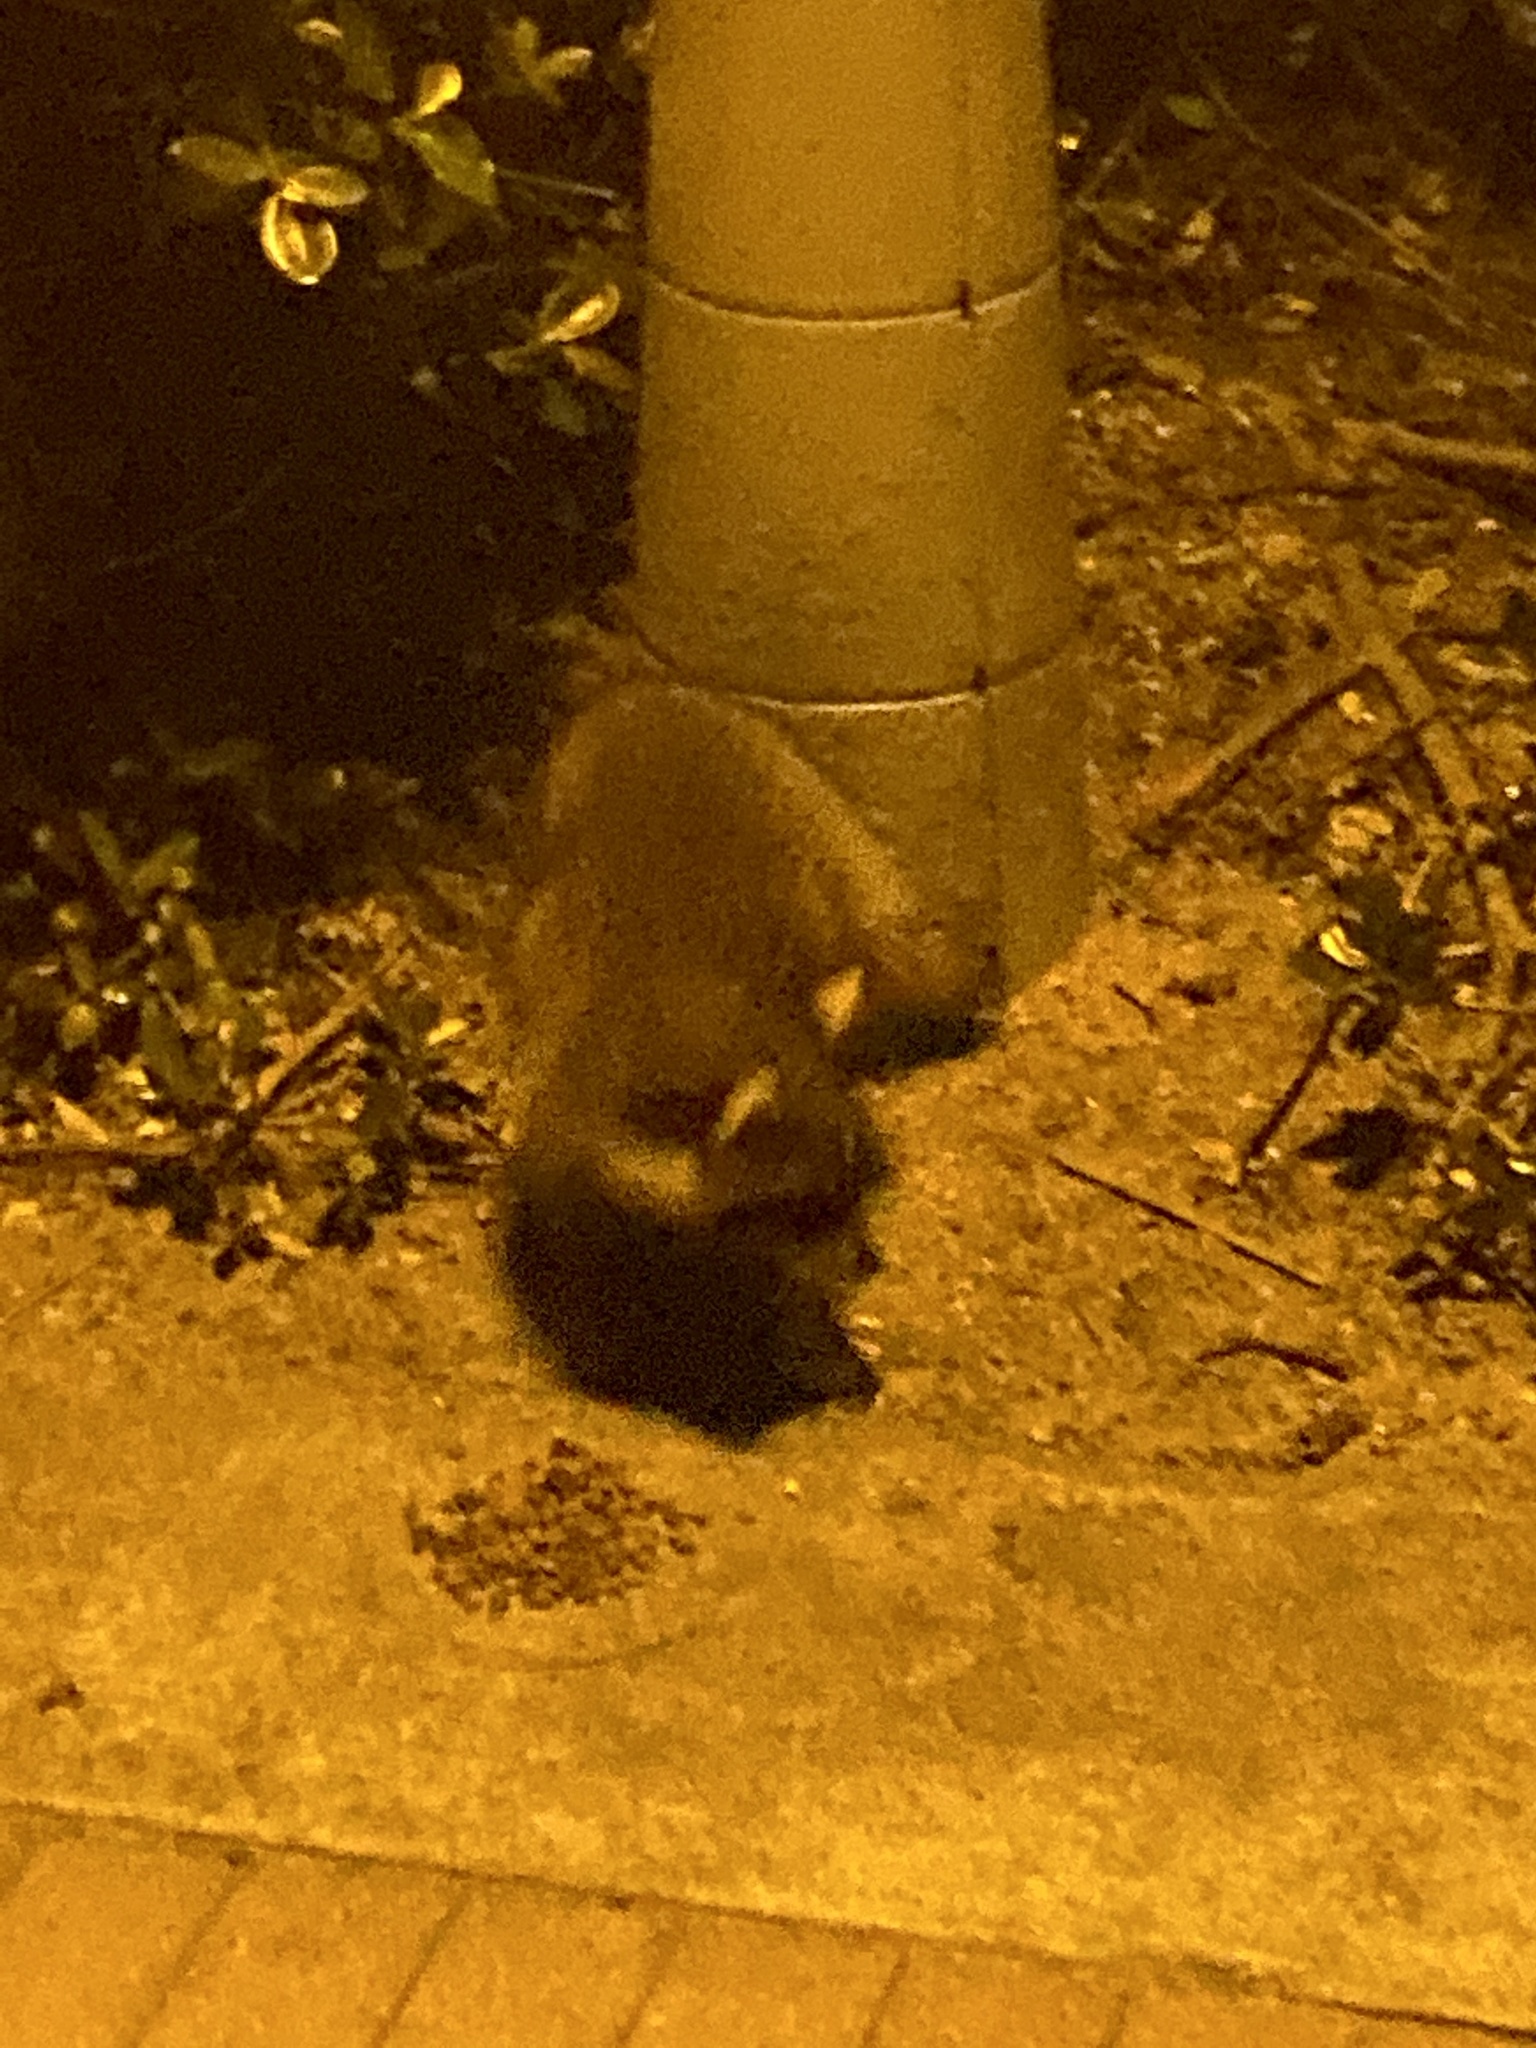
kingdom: Animalia
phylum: Chordata
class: Mammalia
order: Carnivora
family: Procyonidae
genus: Procyon
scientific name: Procyon lotor
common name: Raccoon
